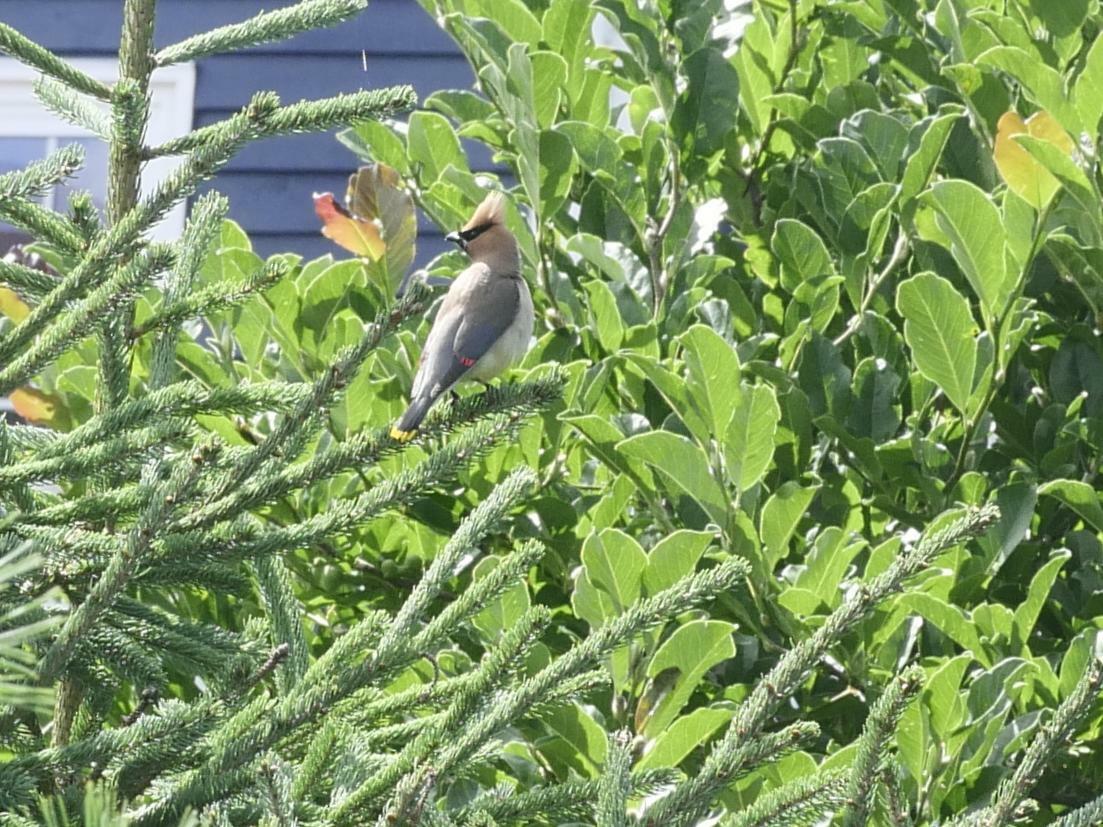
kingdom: Animalia
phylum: Chordata
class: Aves
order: Passeriformes
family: Bombycillidae
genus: Bombycilla
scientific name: Bombycilla cedrorum
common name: Cedar waxwing
